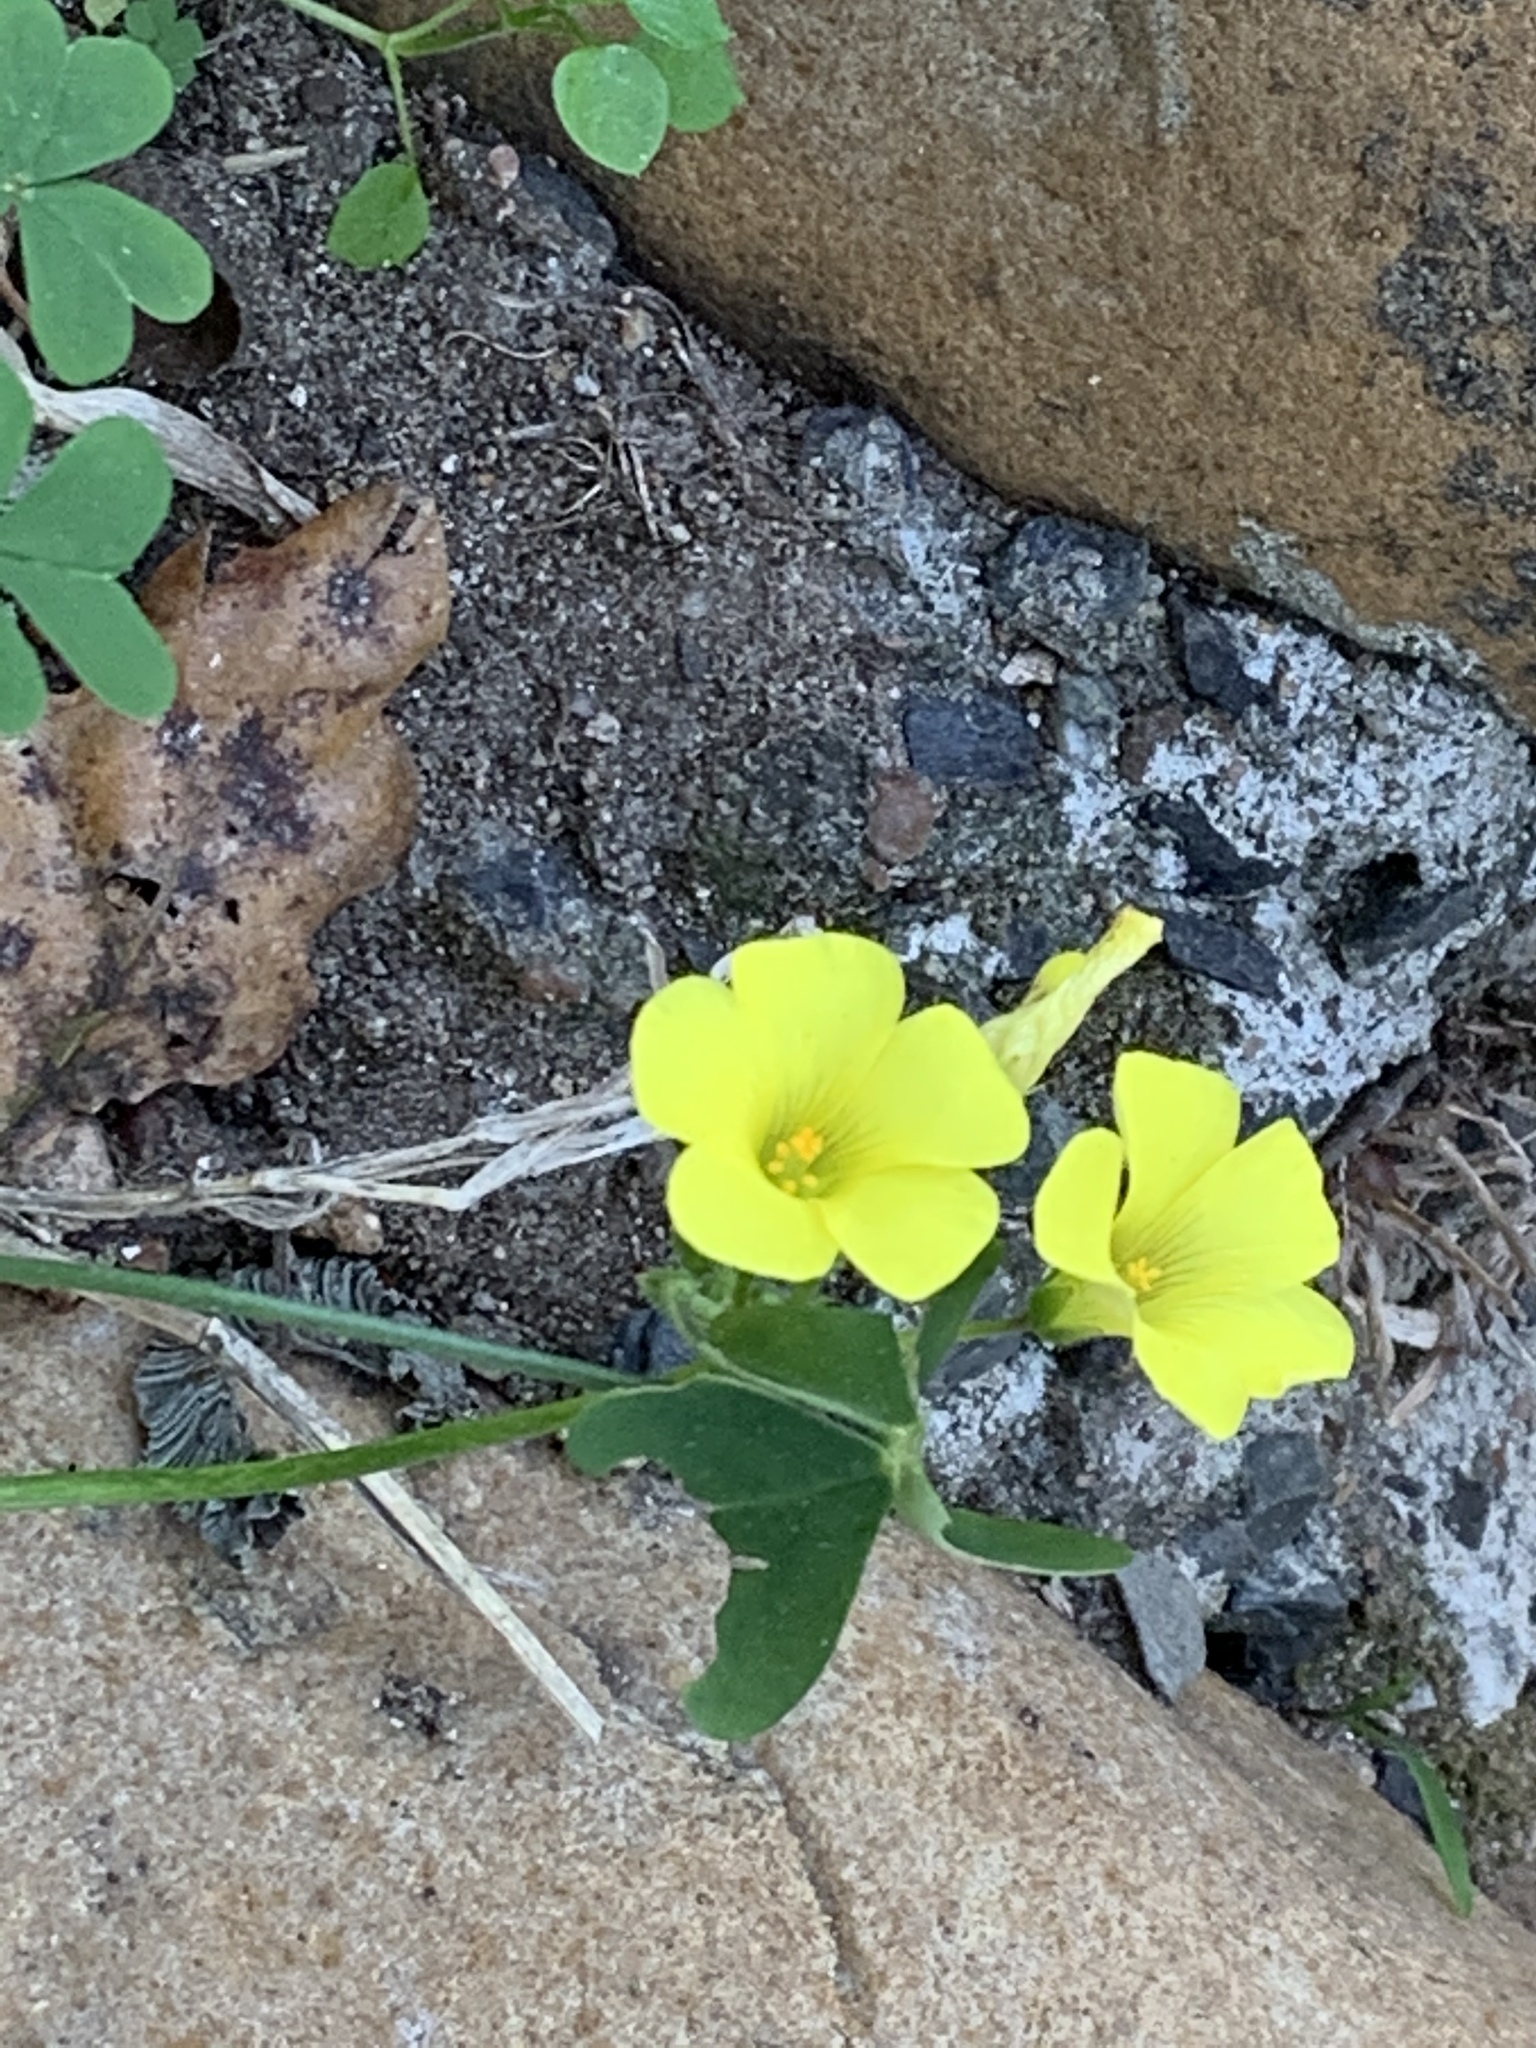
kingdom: Plantae
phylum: Tracheophyta
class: Magnoliopsida
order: Oxalidales
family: Oxalidaceae
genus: Oxalis
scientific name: Oxalis pes-caprae
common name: Bermuda-buttercup
